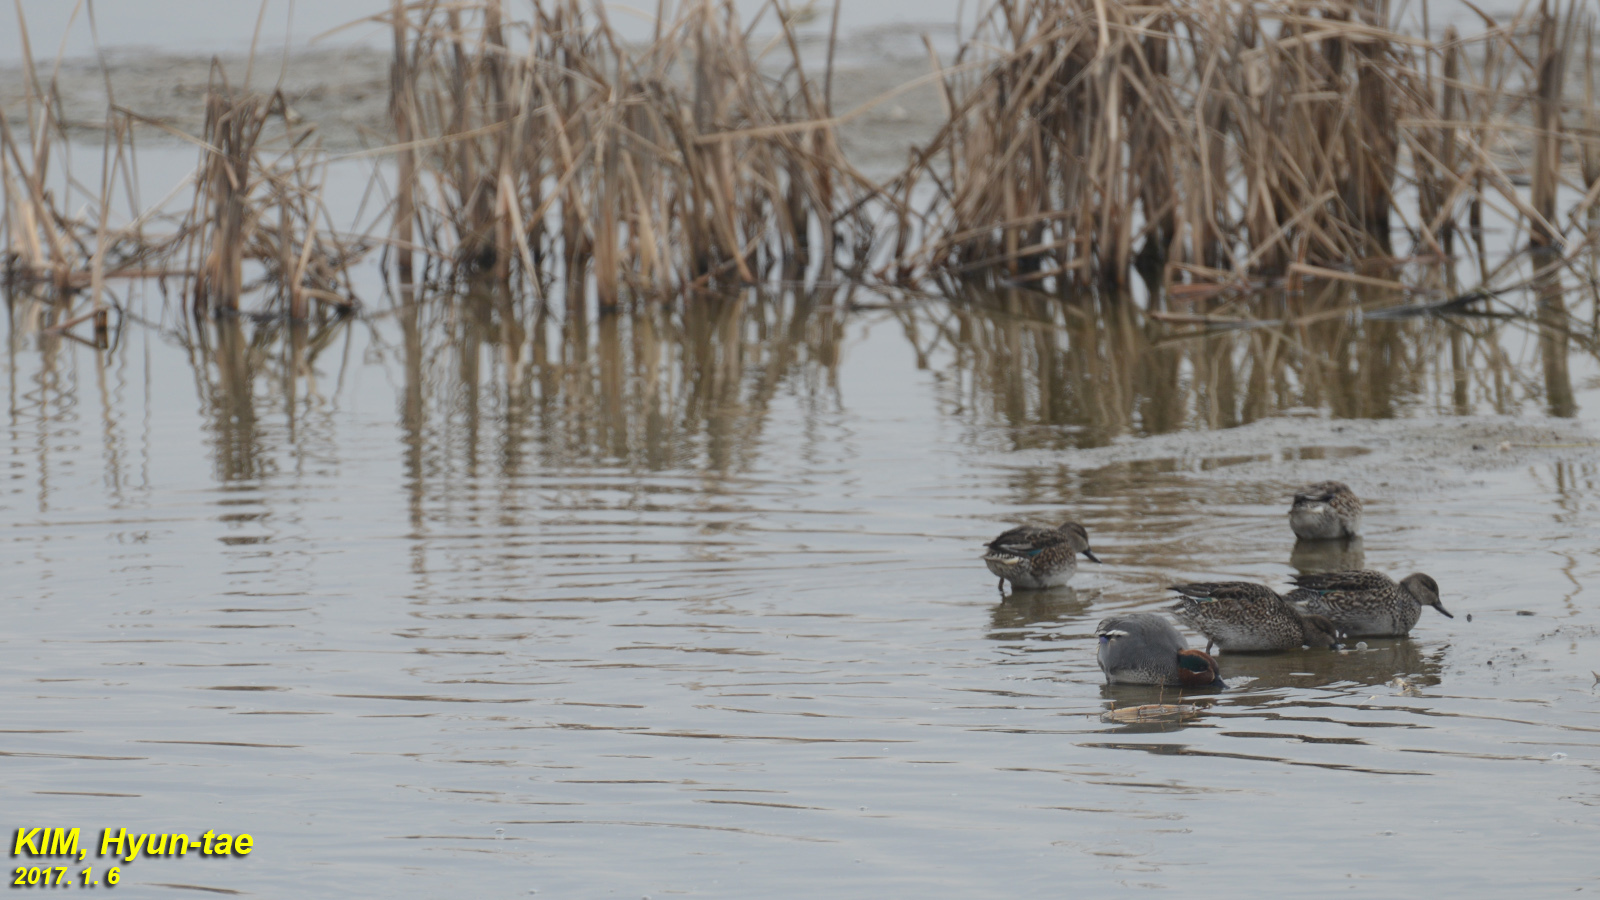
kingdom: Animalia
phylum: Chordata
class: Aves
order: Anseriformes
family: Anatidae
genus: Anas
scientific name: Anas crecca
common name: Eurasian teal
